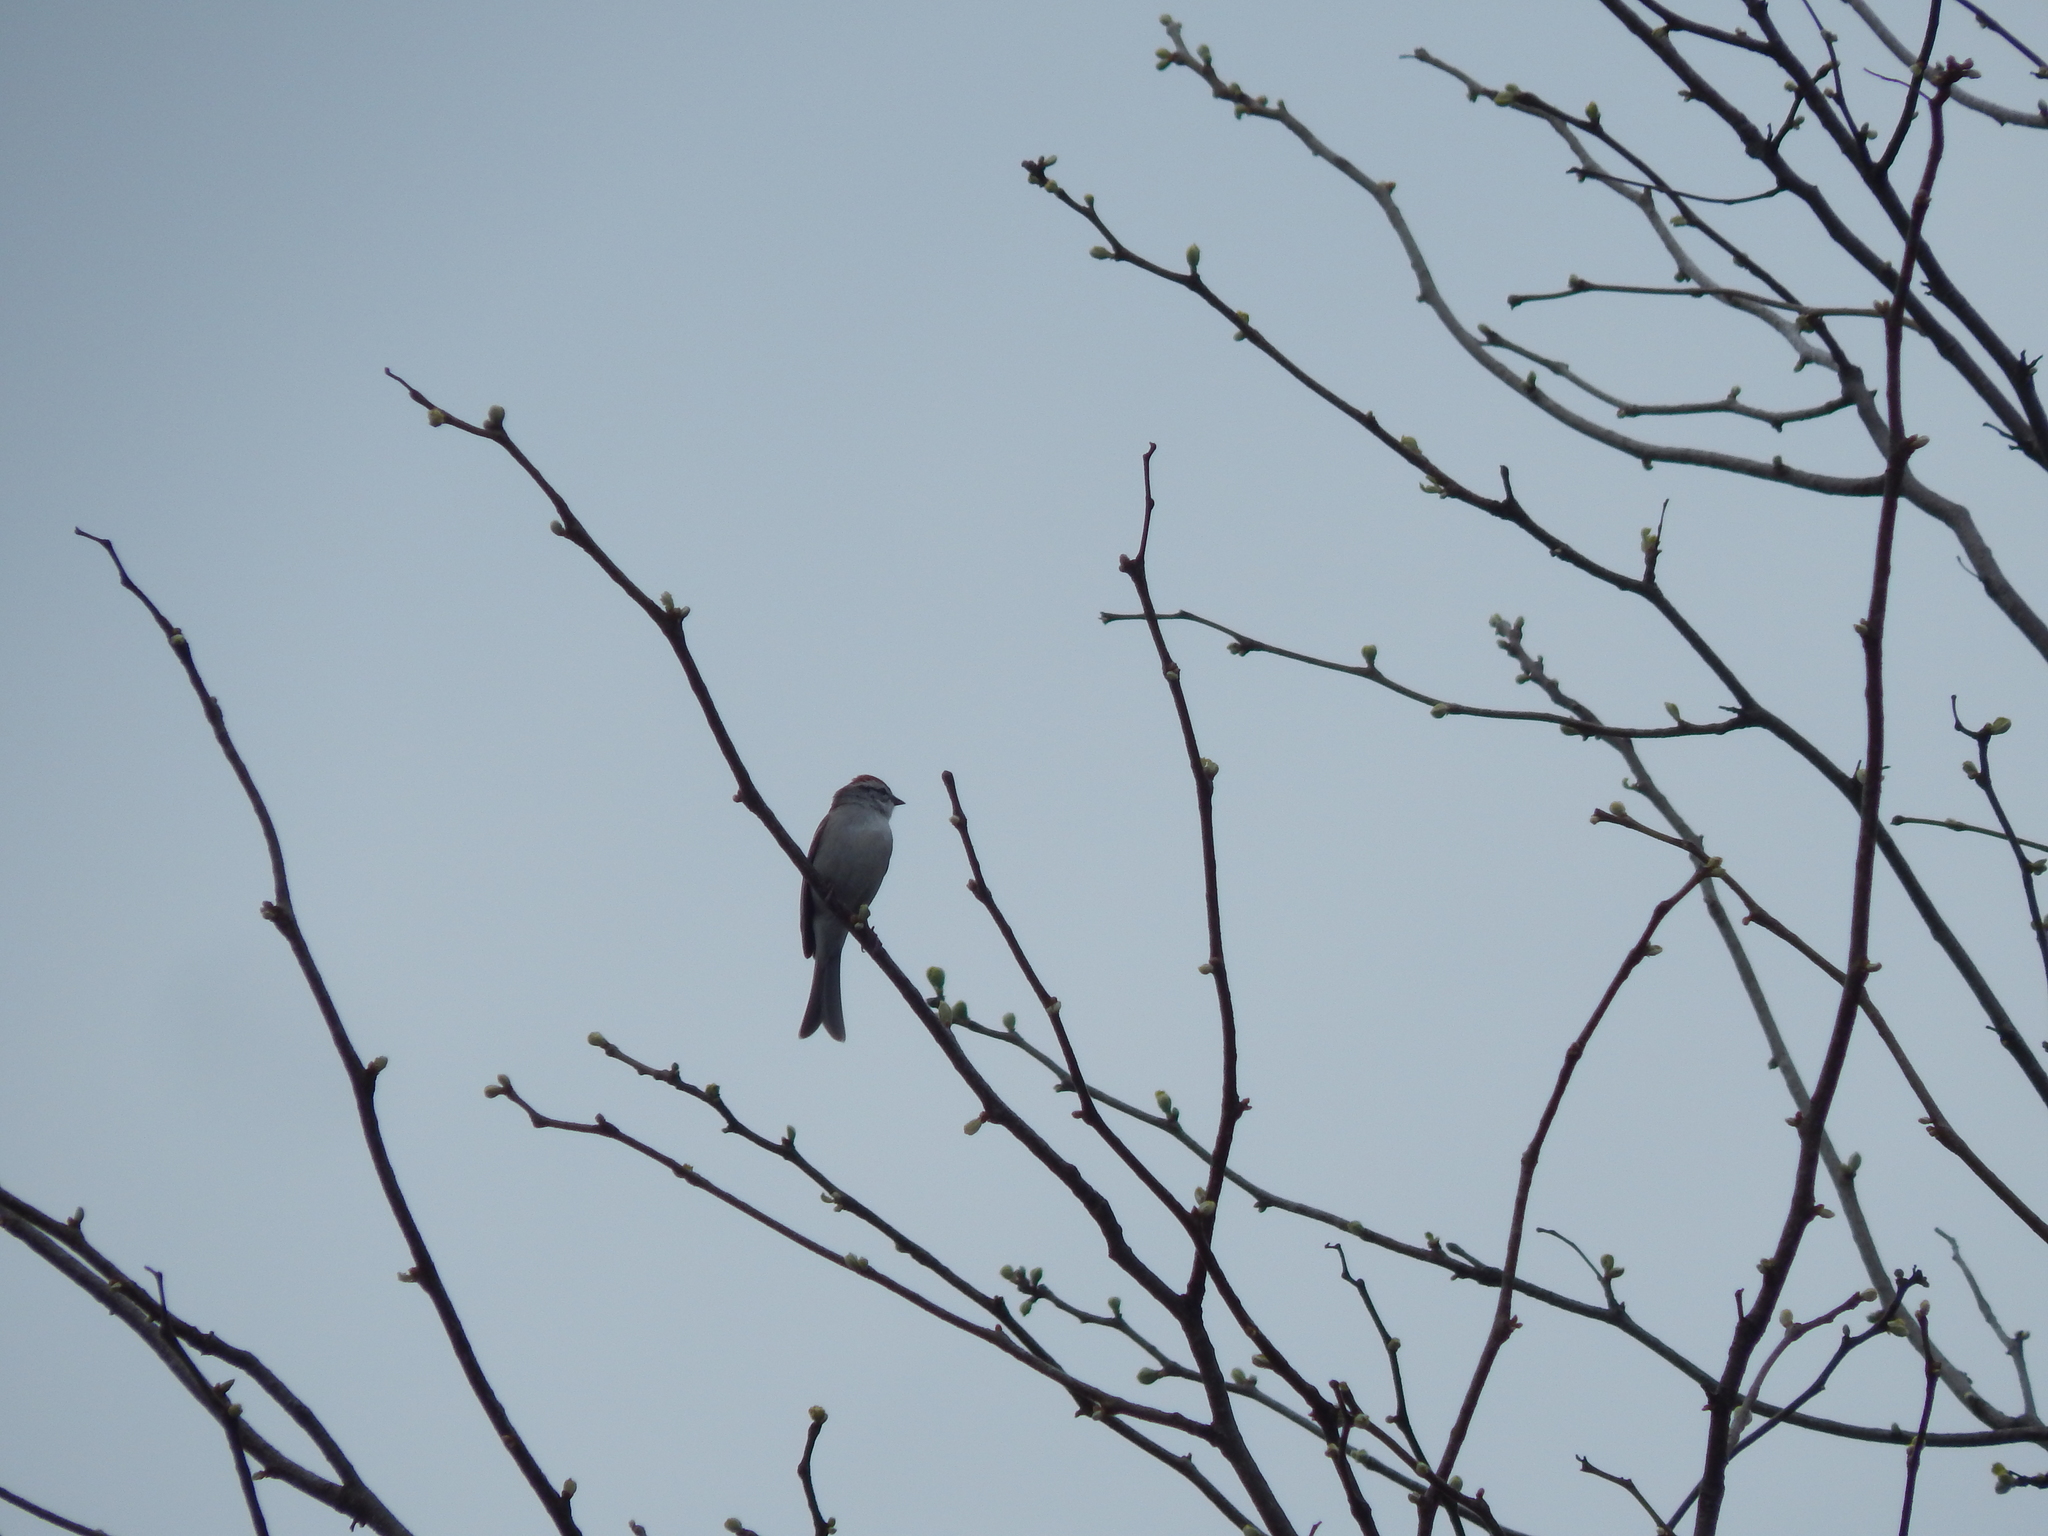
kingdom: Animalia
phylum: Chordata
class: Aves
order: Passeriformes
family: Passerellidae
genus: Spizella
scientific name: Spizella passerina
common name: Chipping sparrow
